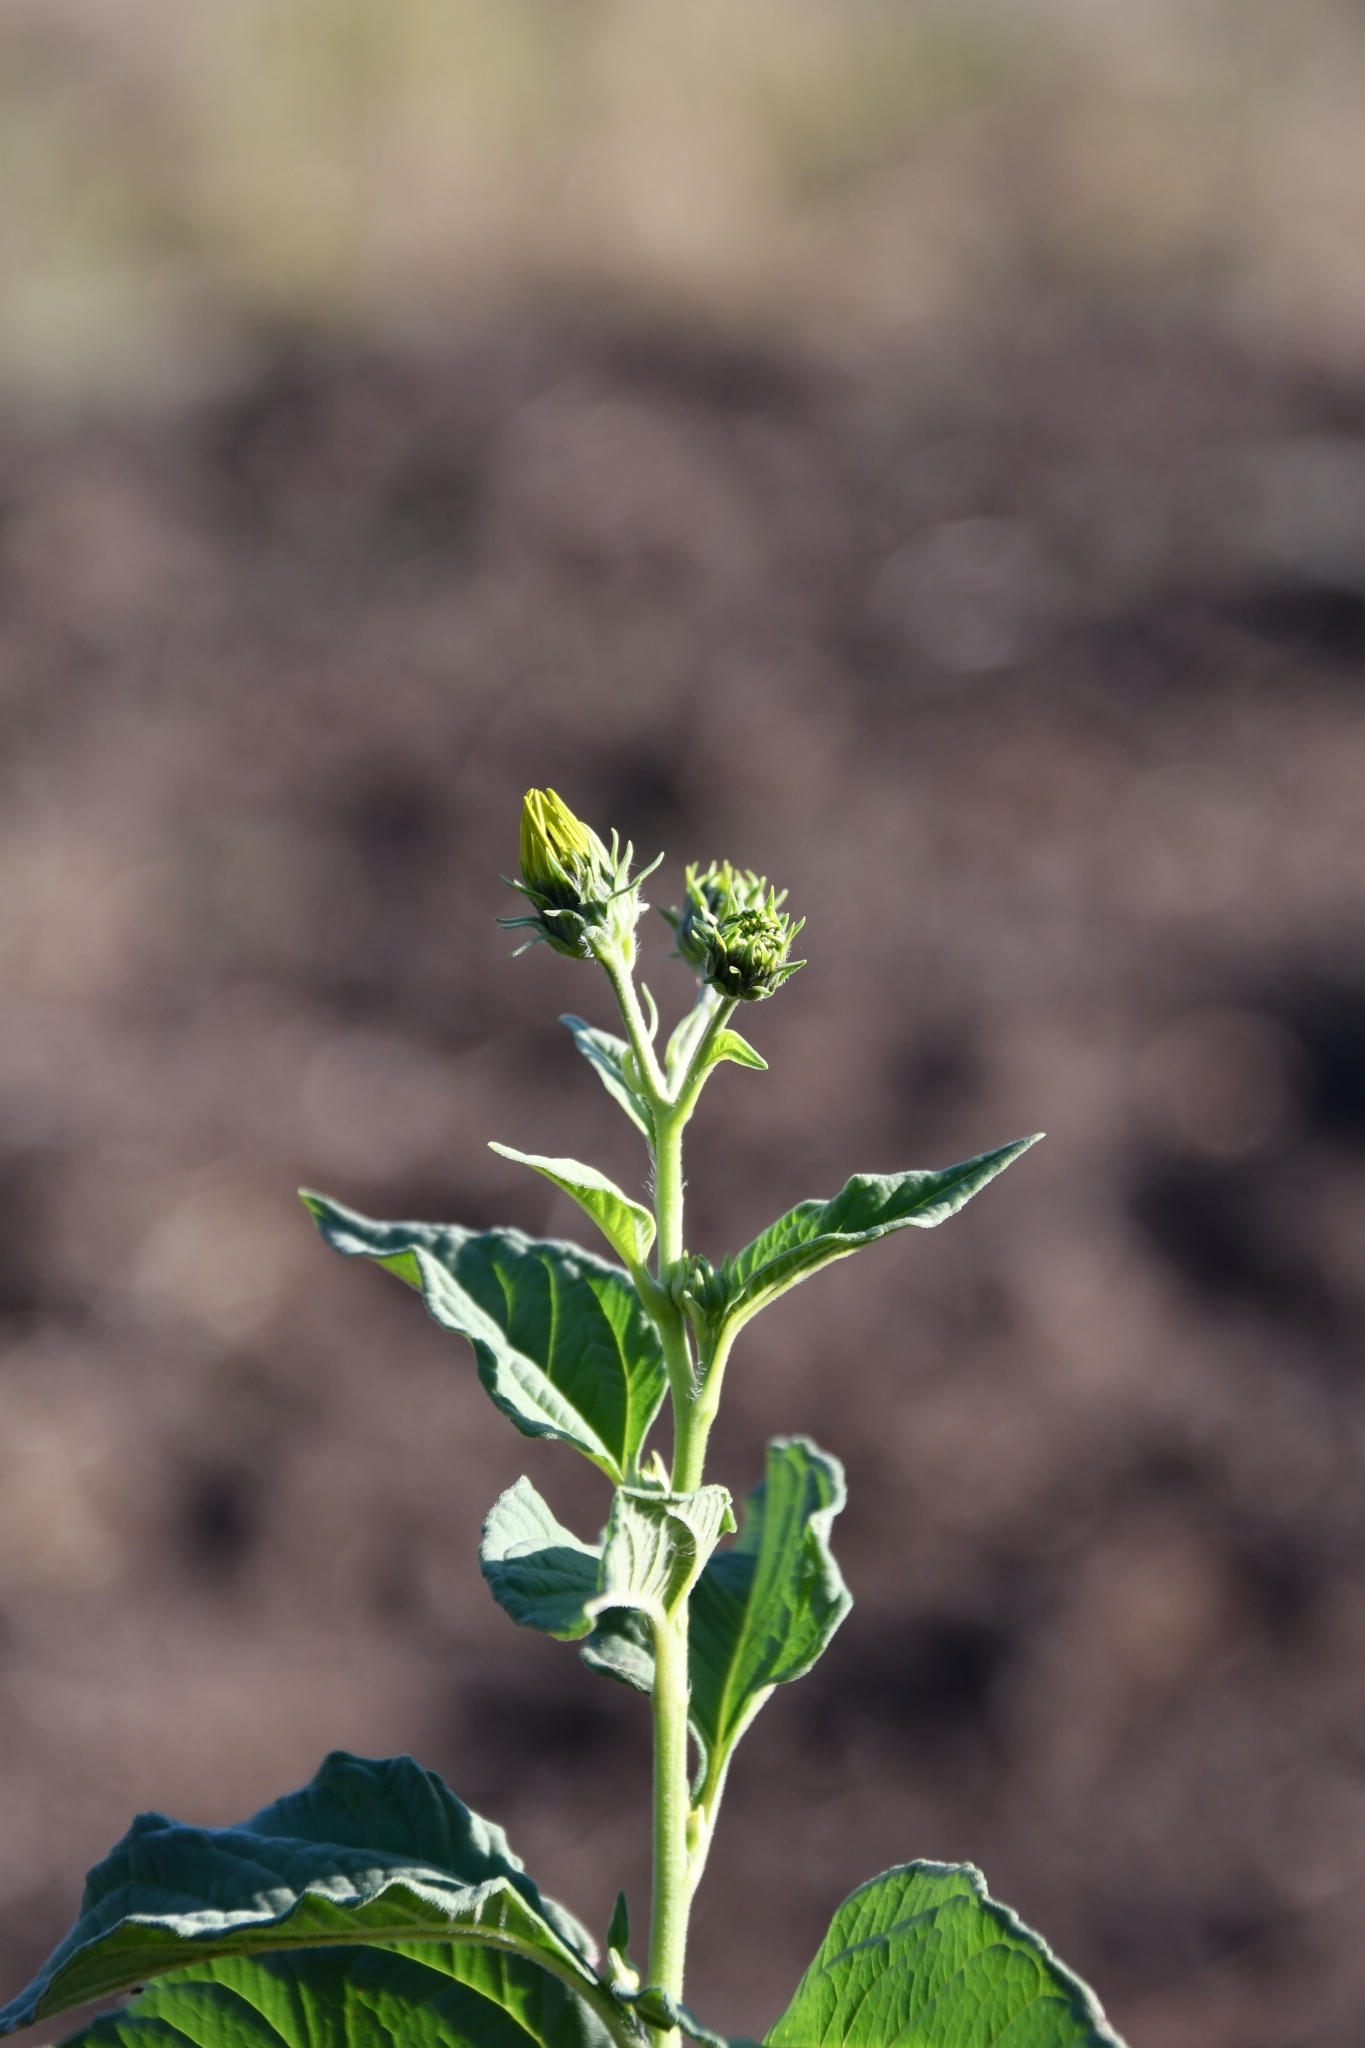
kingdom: Plantae
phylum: Tracheophyta
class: Magnoliopsida
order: Asterales
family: Asteraceae
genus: Helianthus
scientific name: Helianthus tuberosus
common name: Jerusalem artichoke
